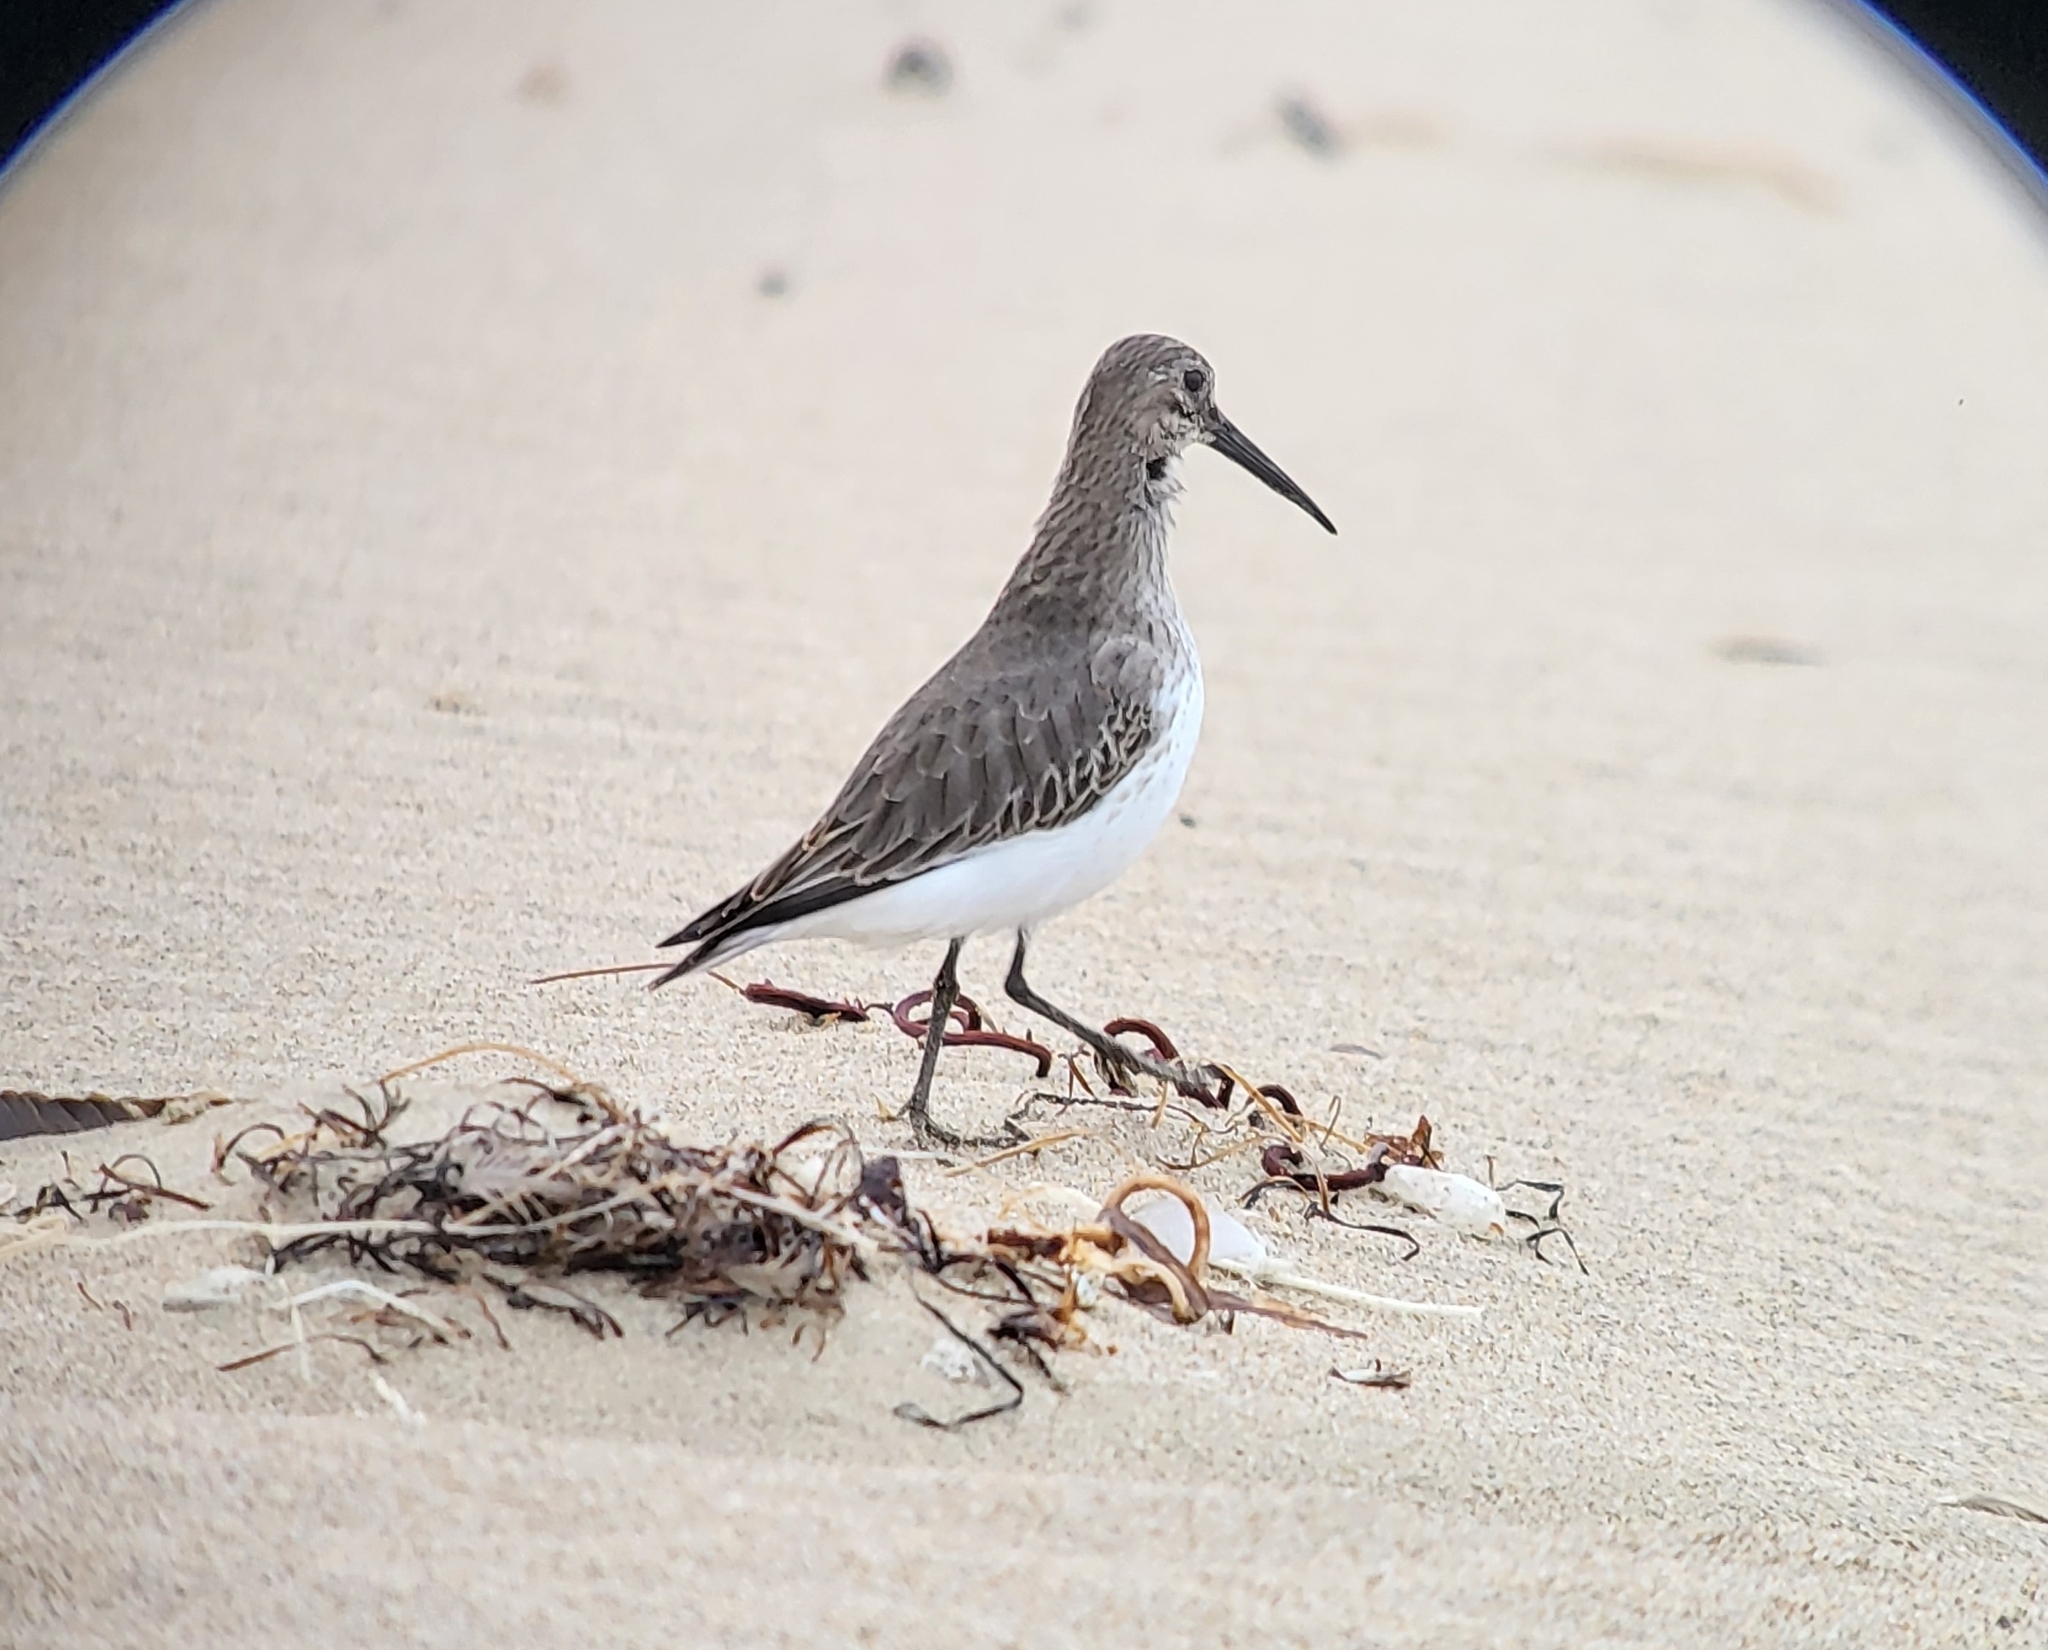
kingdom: Animalia
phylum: Chordata
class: Aves
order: Charadriiformes
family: Scolopacidae
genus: Calidris
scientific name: Calidris alpina
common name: Dunlin
